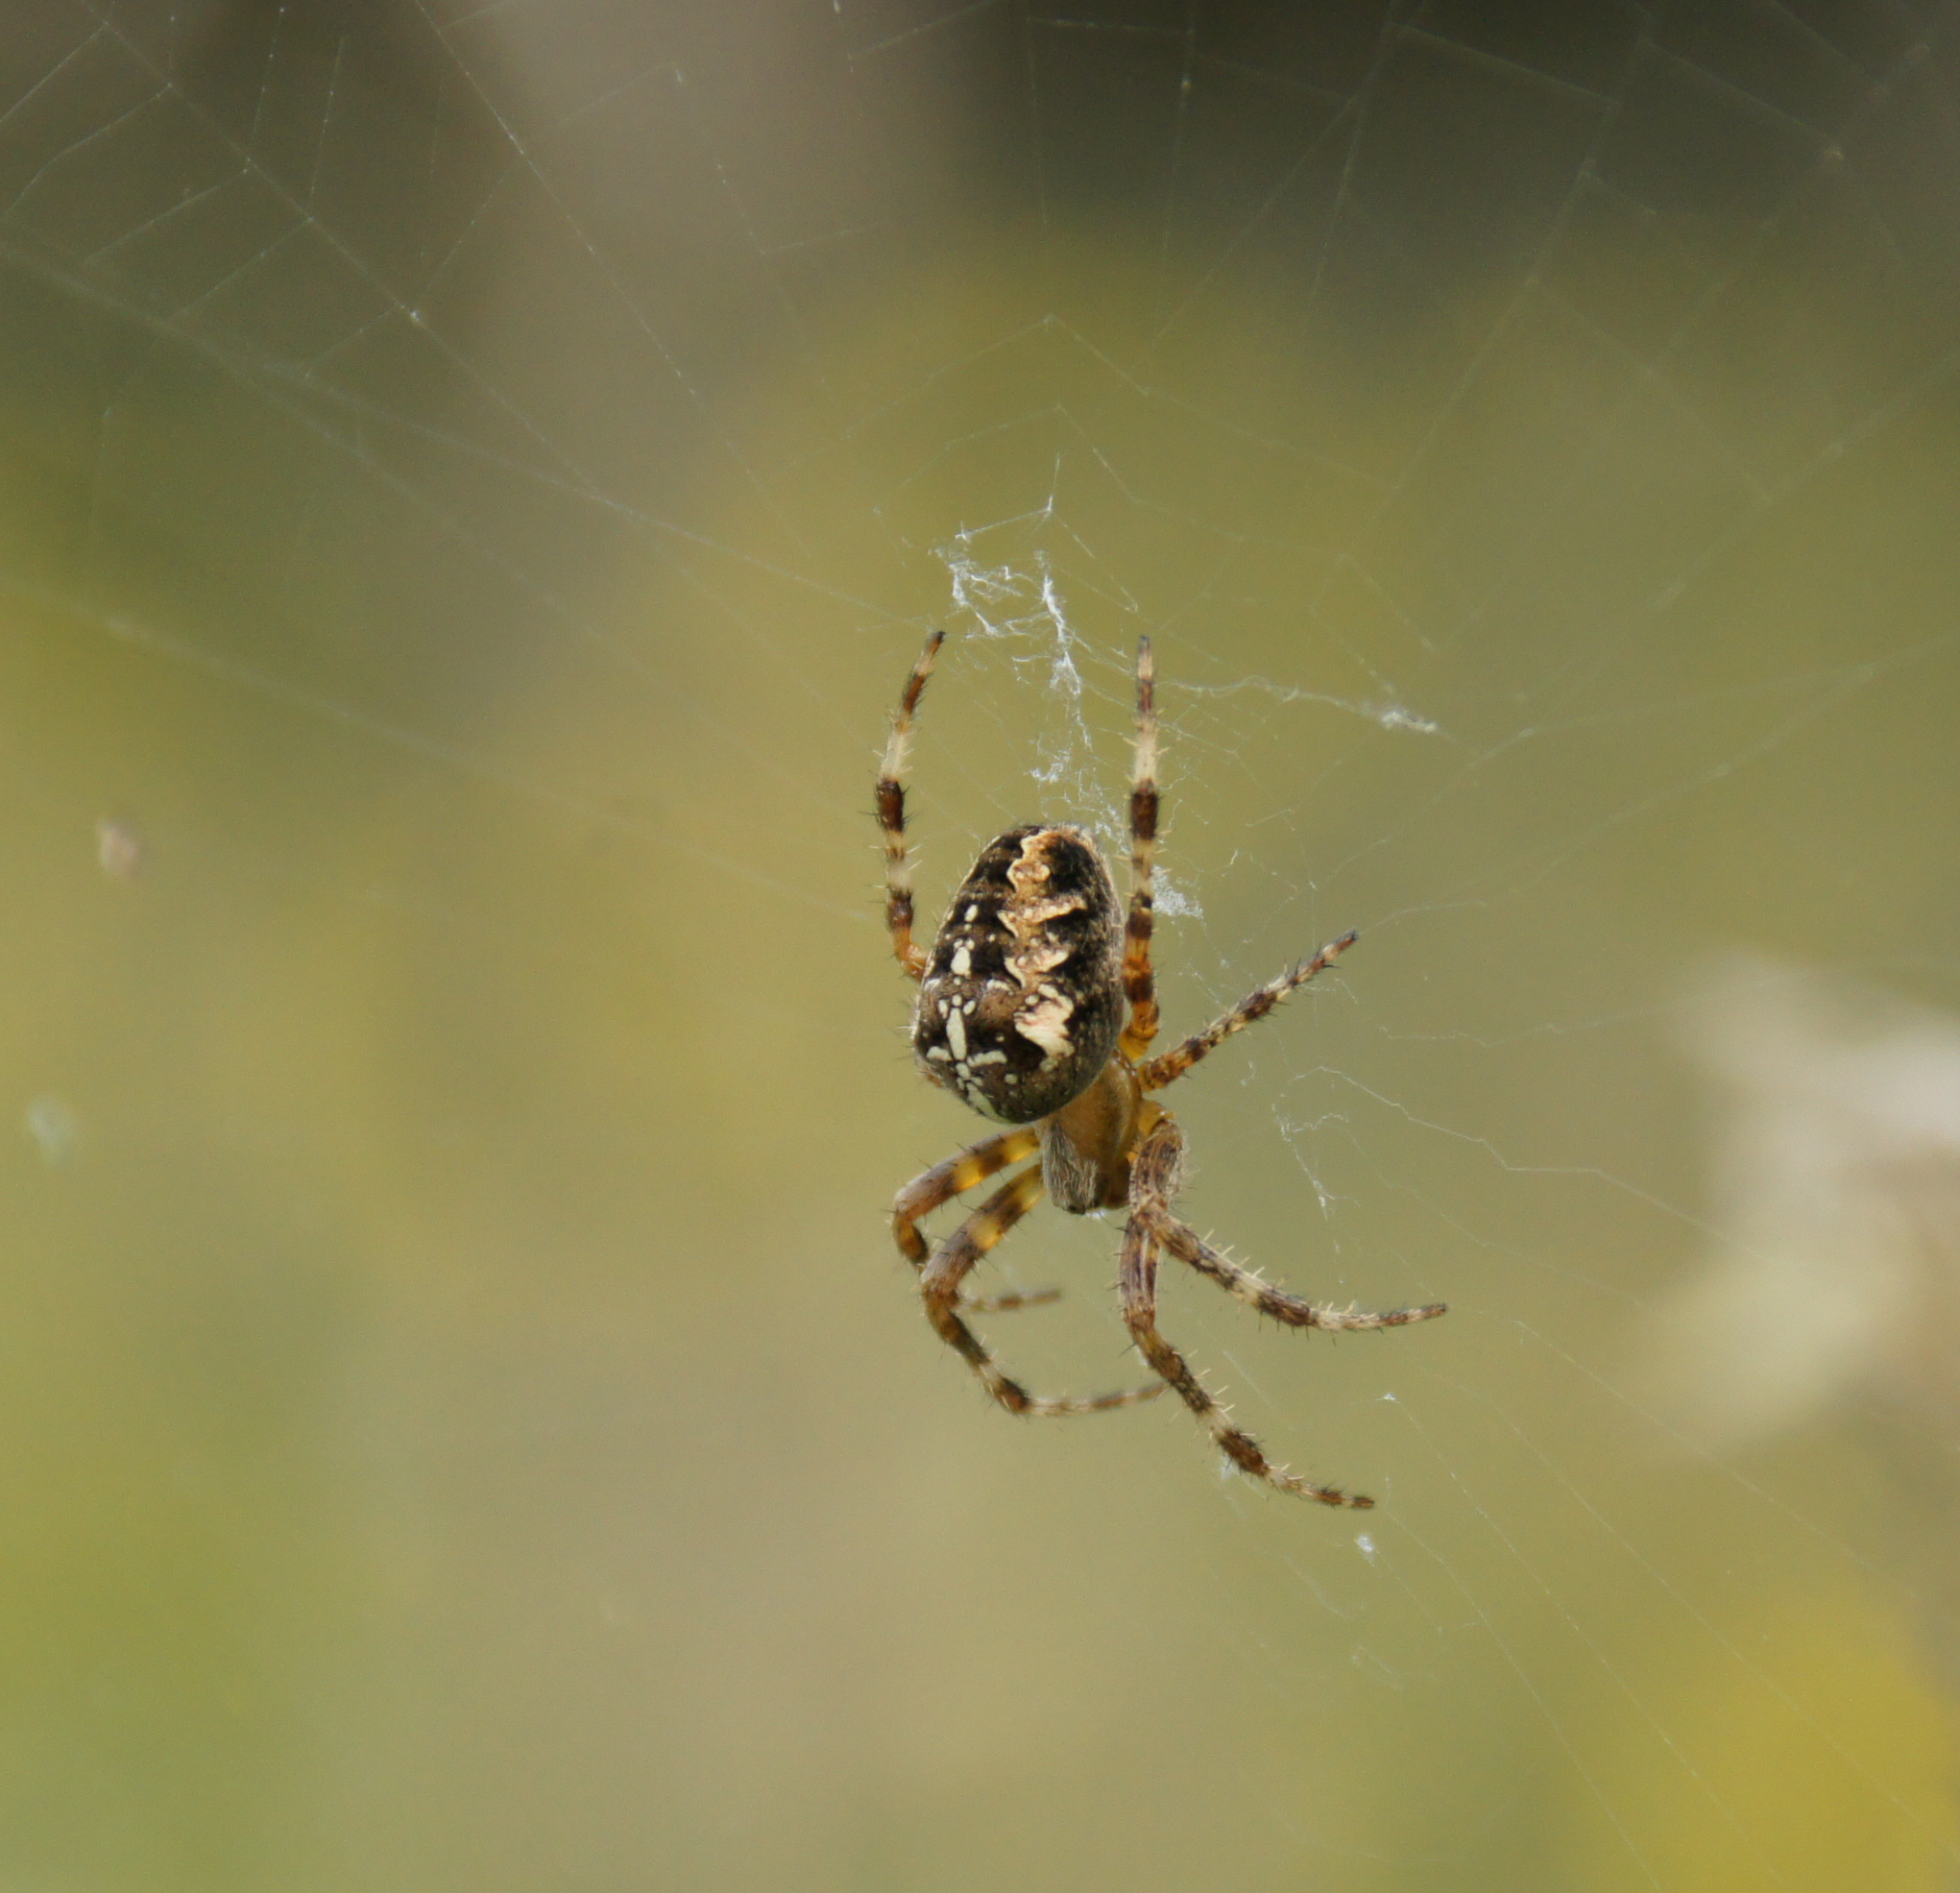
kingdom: Animalia
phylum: Arthropoda
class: Arachnida
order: Araneae
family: Araneidae
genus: Araneus
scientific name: Araneus diadematus
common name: Cross orbweaver
